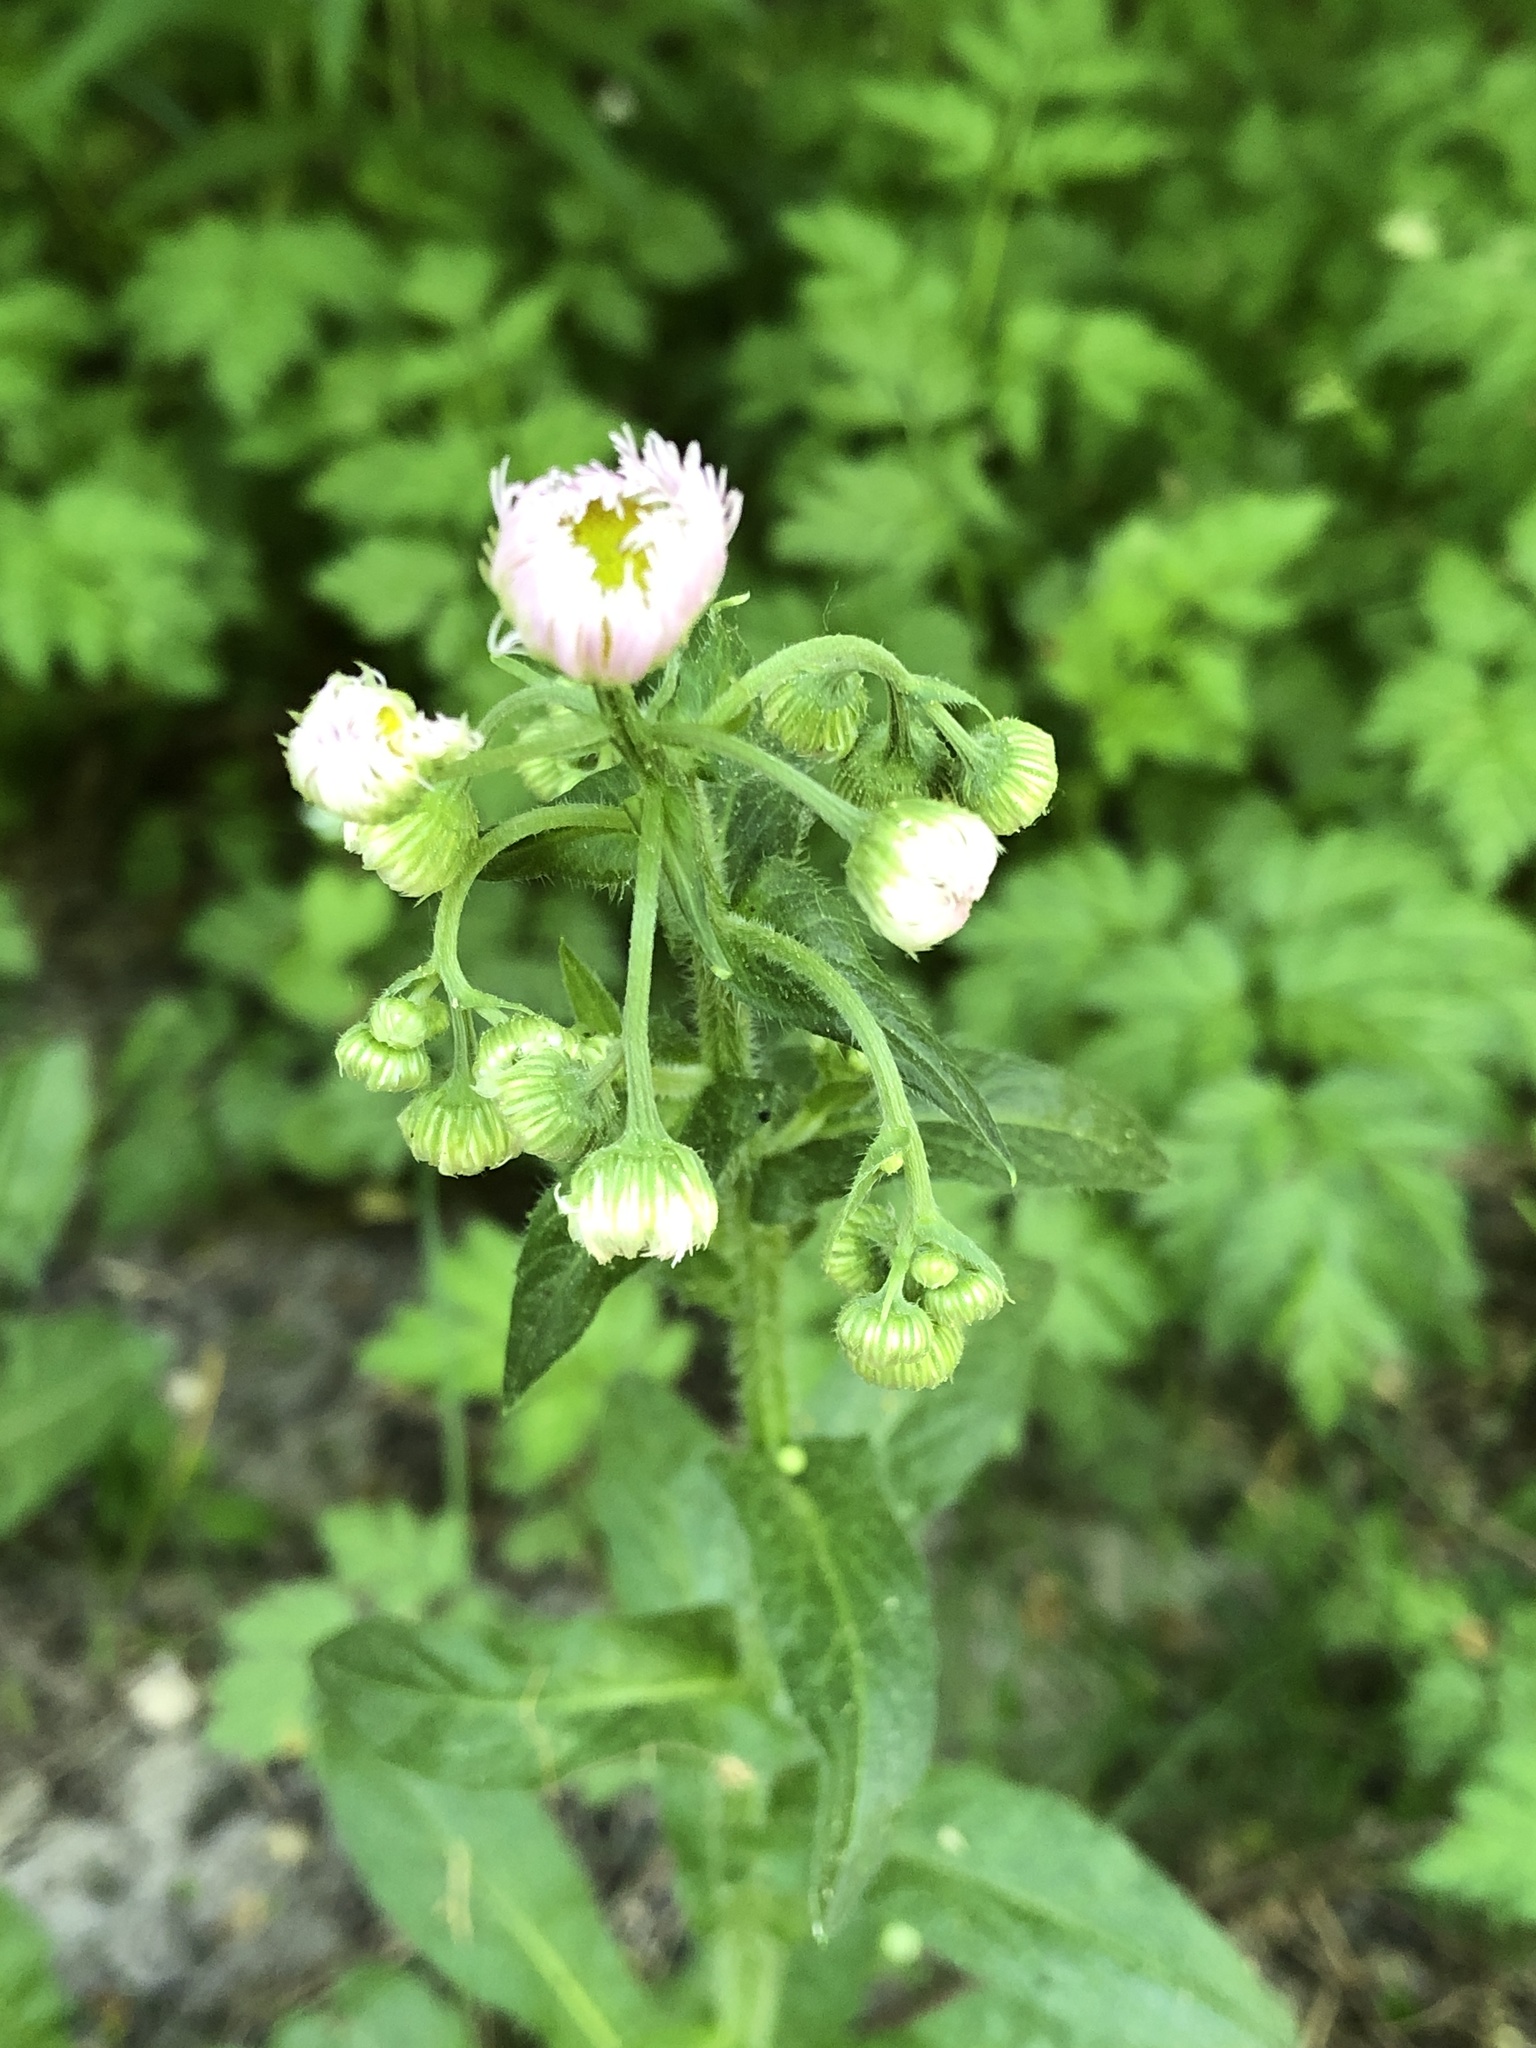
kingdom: Plantae
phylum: Tracheophyta
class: Magnoliopsida
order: Asterales
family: Asteraceae
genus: Erigeron
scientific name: Erigeron philadelphicus
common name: Robin's-plantain
